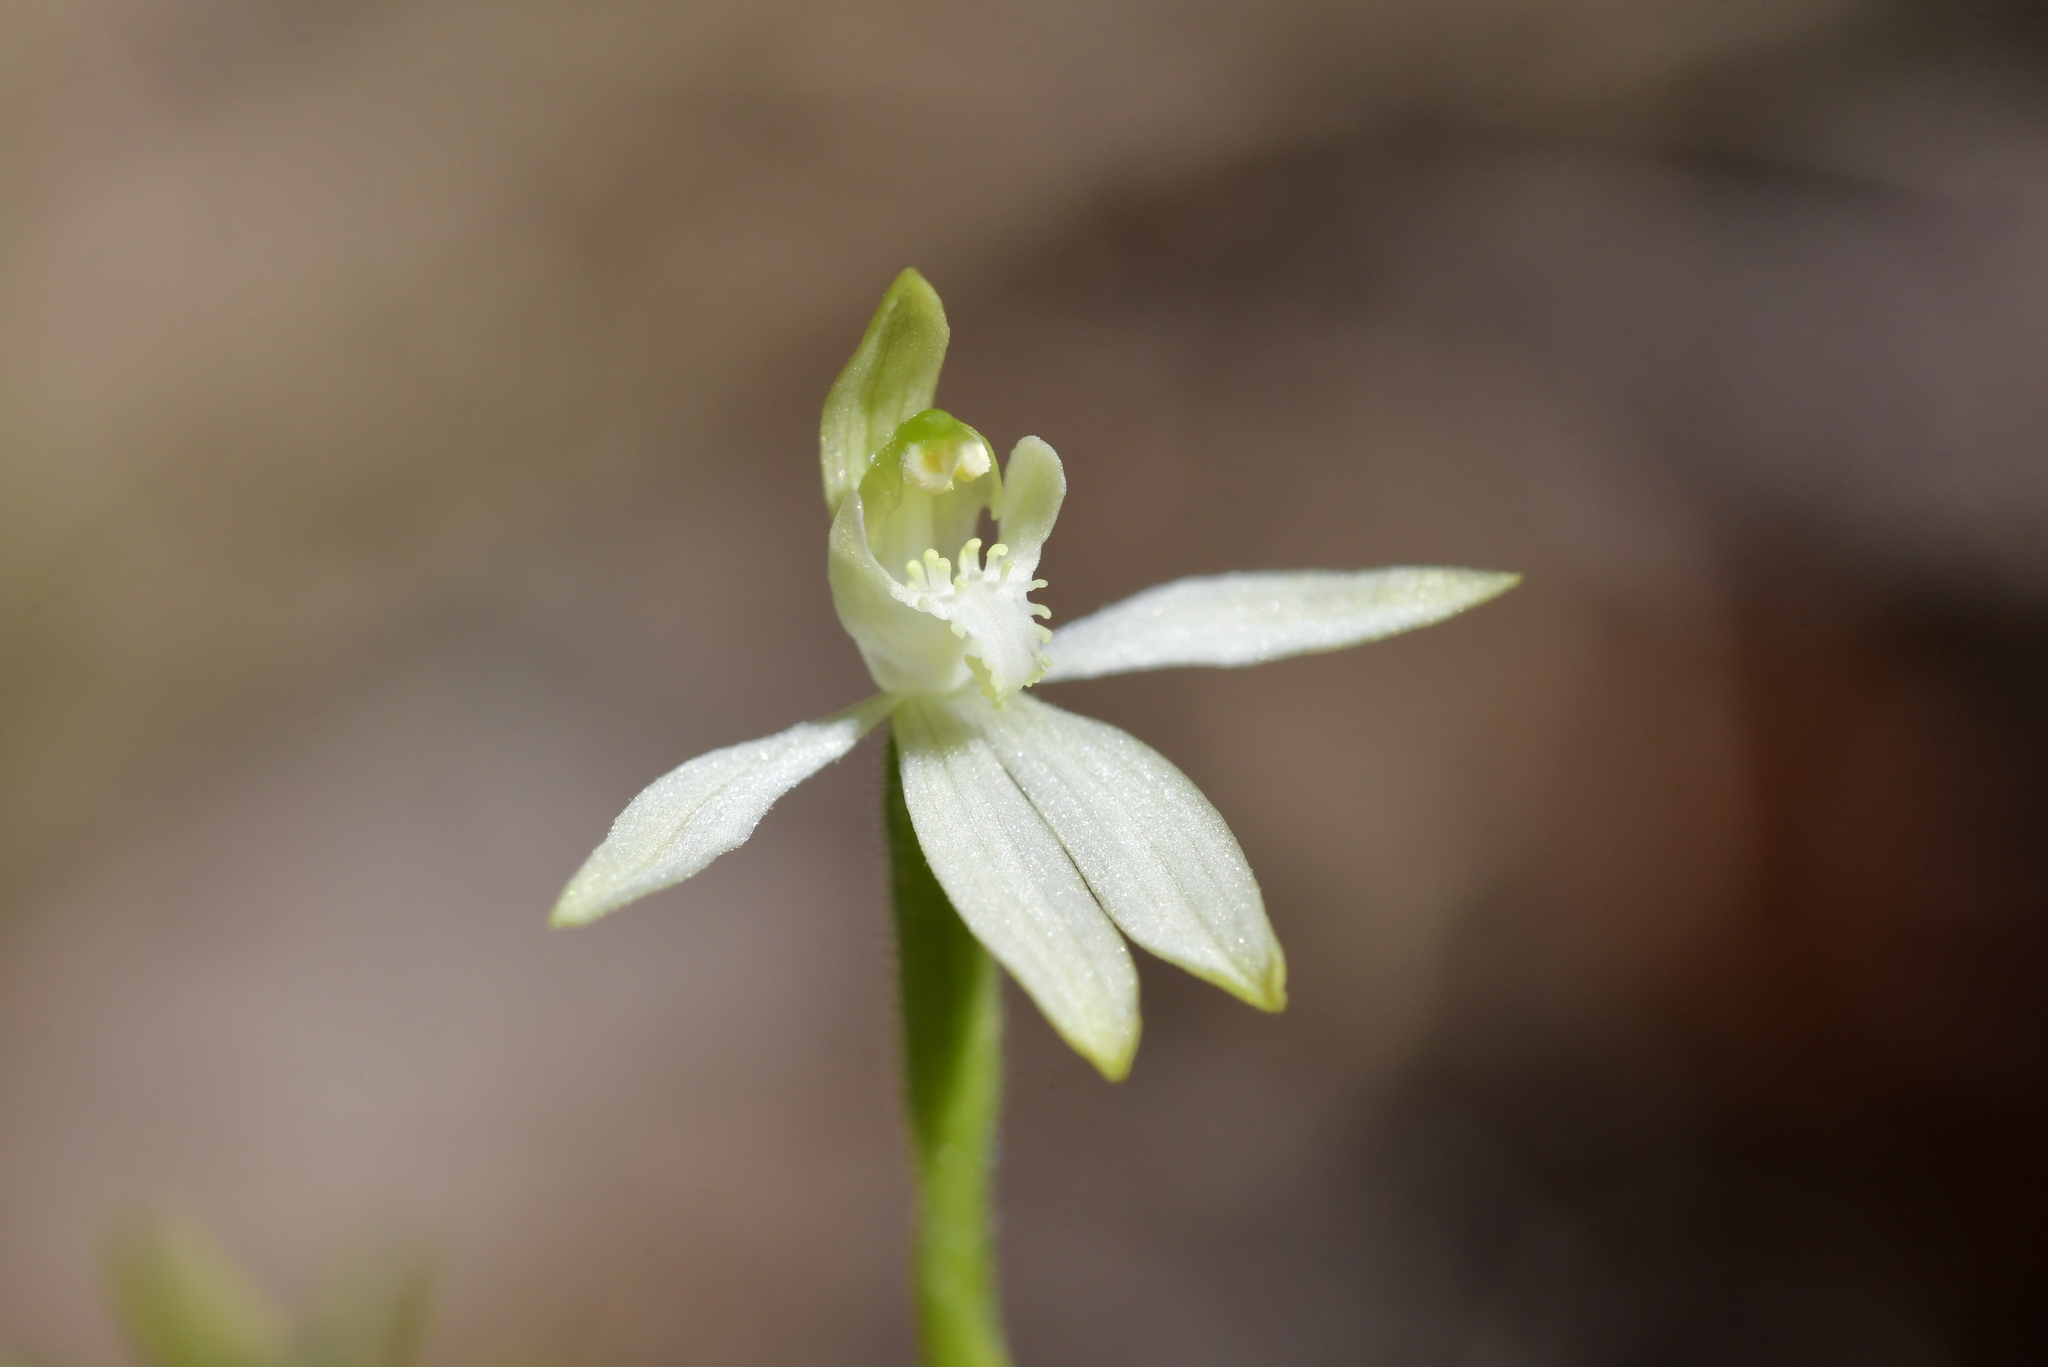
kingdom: Plantae
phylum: Tracheophyta
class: Liliopsida
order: Asparagales
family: Orchidaceae
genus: Caladenia
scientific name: Caladenia nothofageti
